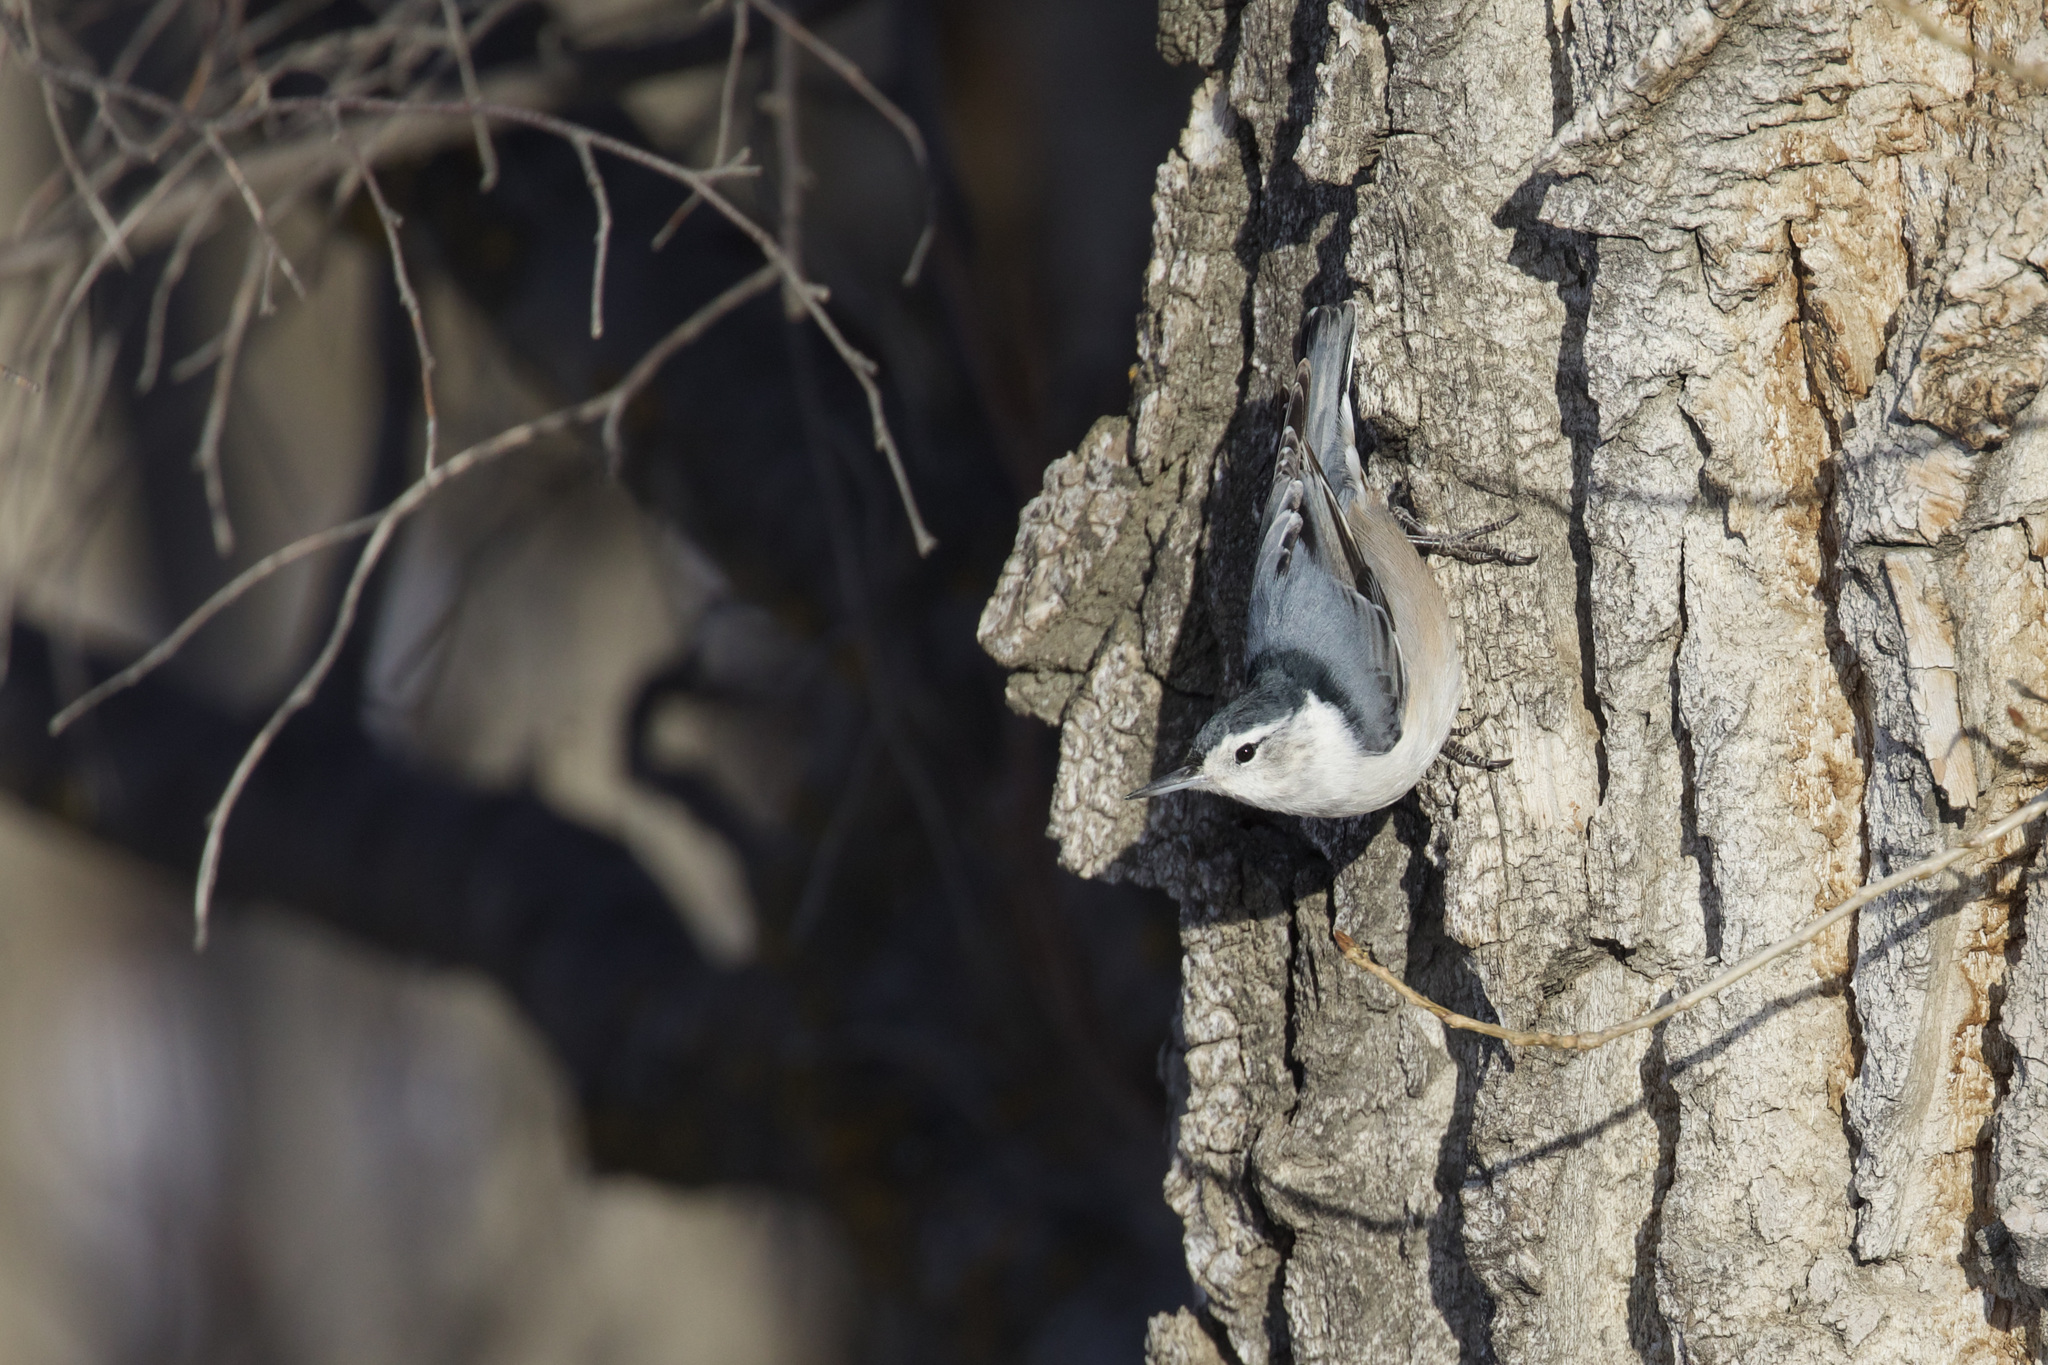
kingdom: Animalia
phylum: Chordata
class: Aves
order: Passeriformes
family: Sittidae
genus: Sitta
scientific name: Sitta carolinensis
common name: White-breasted nuthatch
